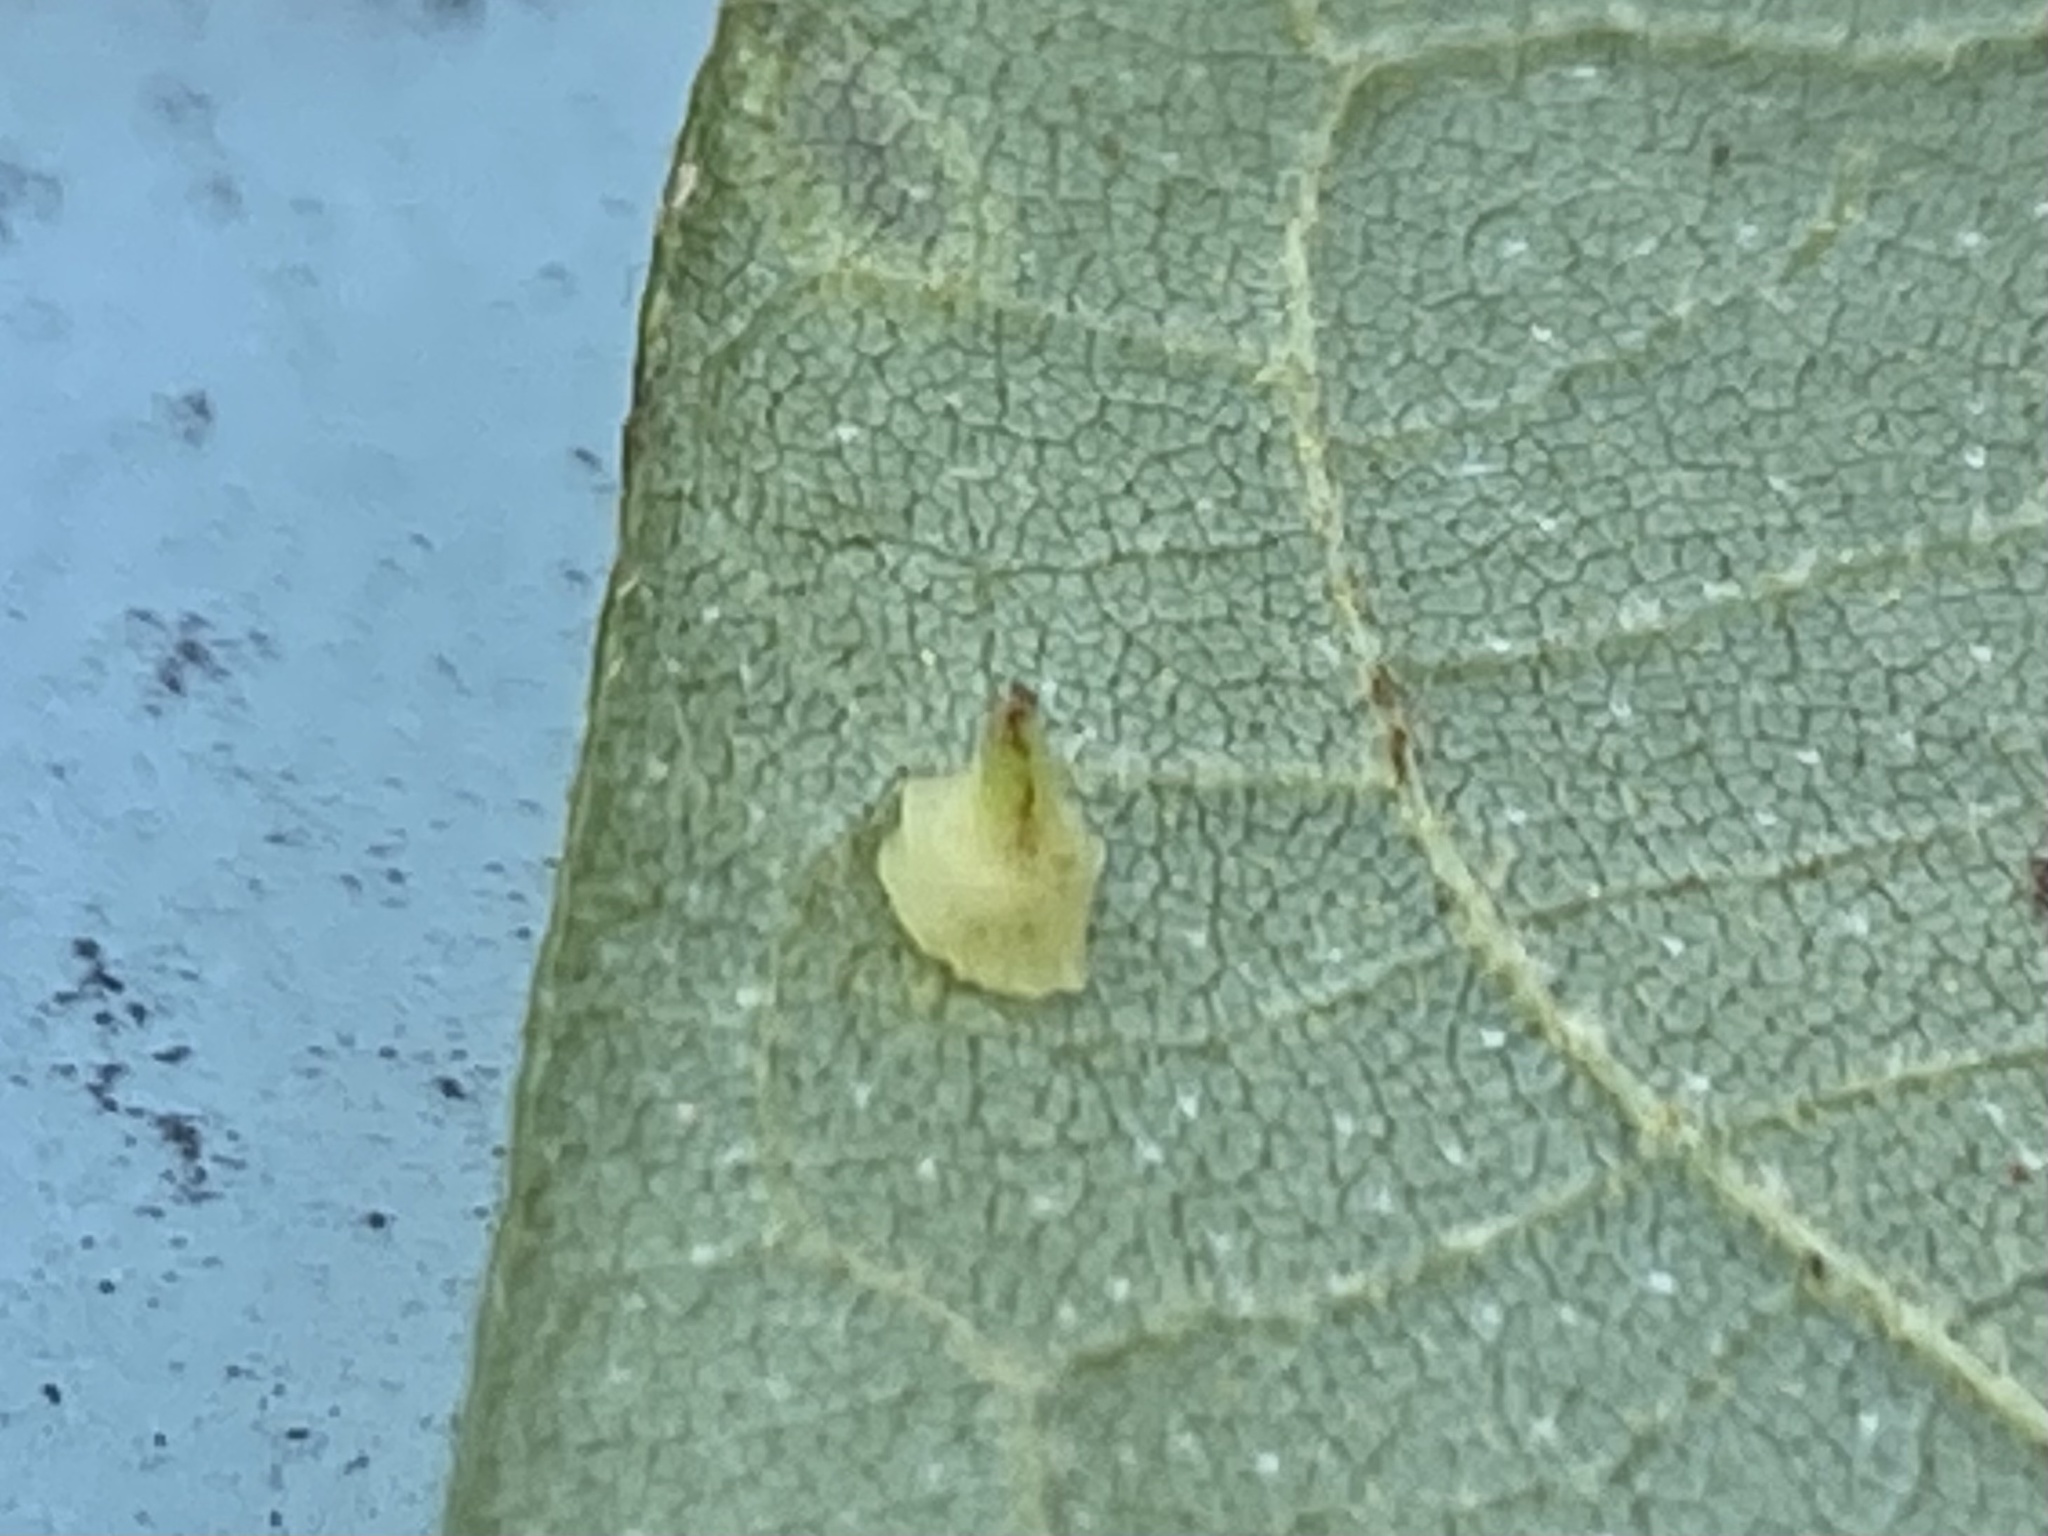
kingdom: Animalia
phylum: Arthropoda
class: Insecta
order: Diptera
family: Cecidomyiidae
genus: Caryomyia
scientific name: Caryomyia sanguinolenta
